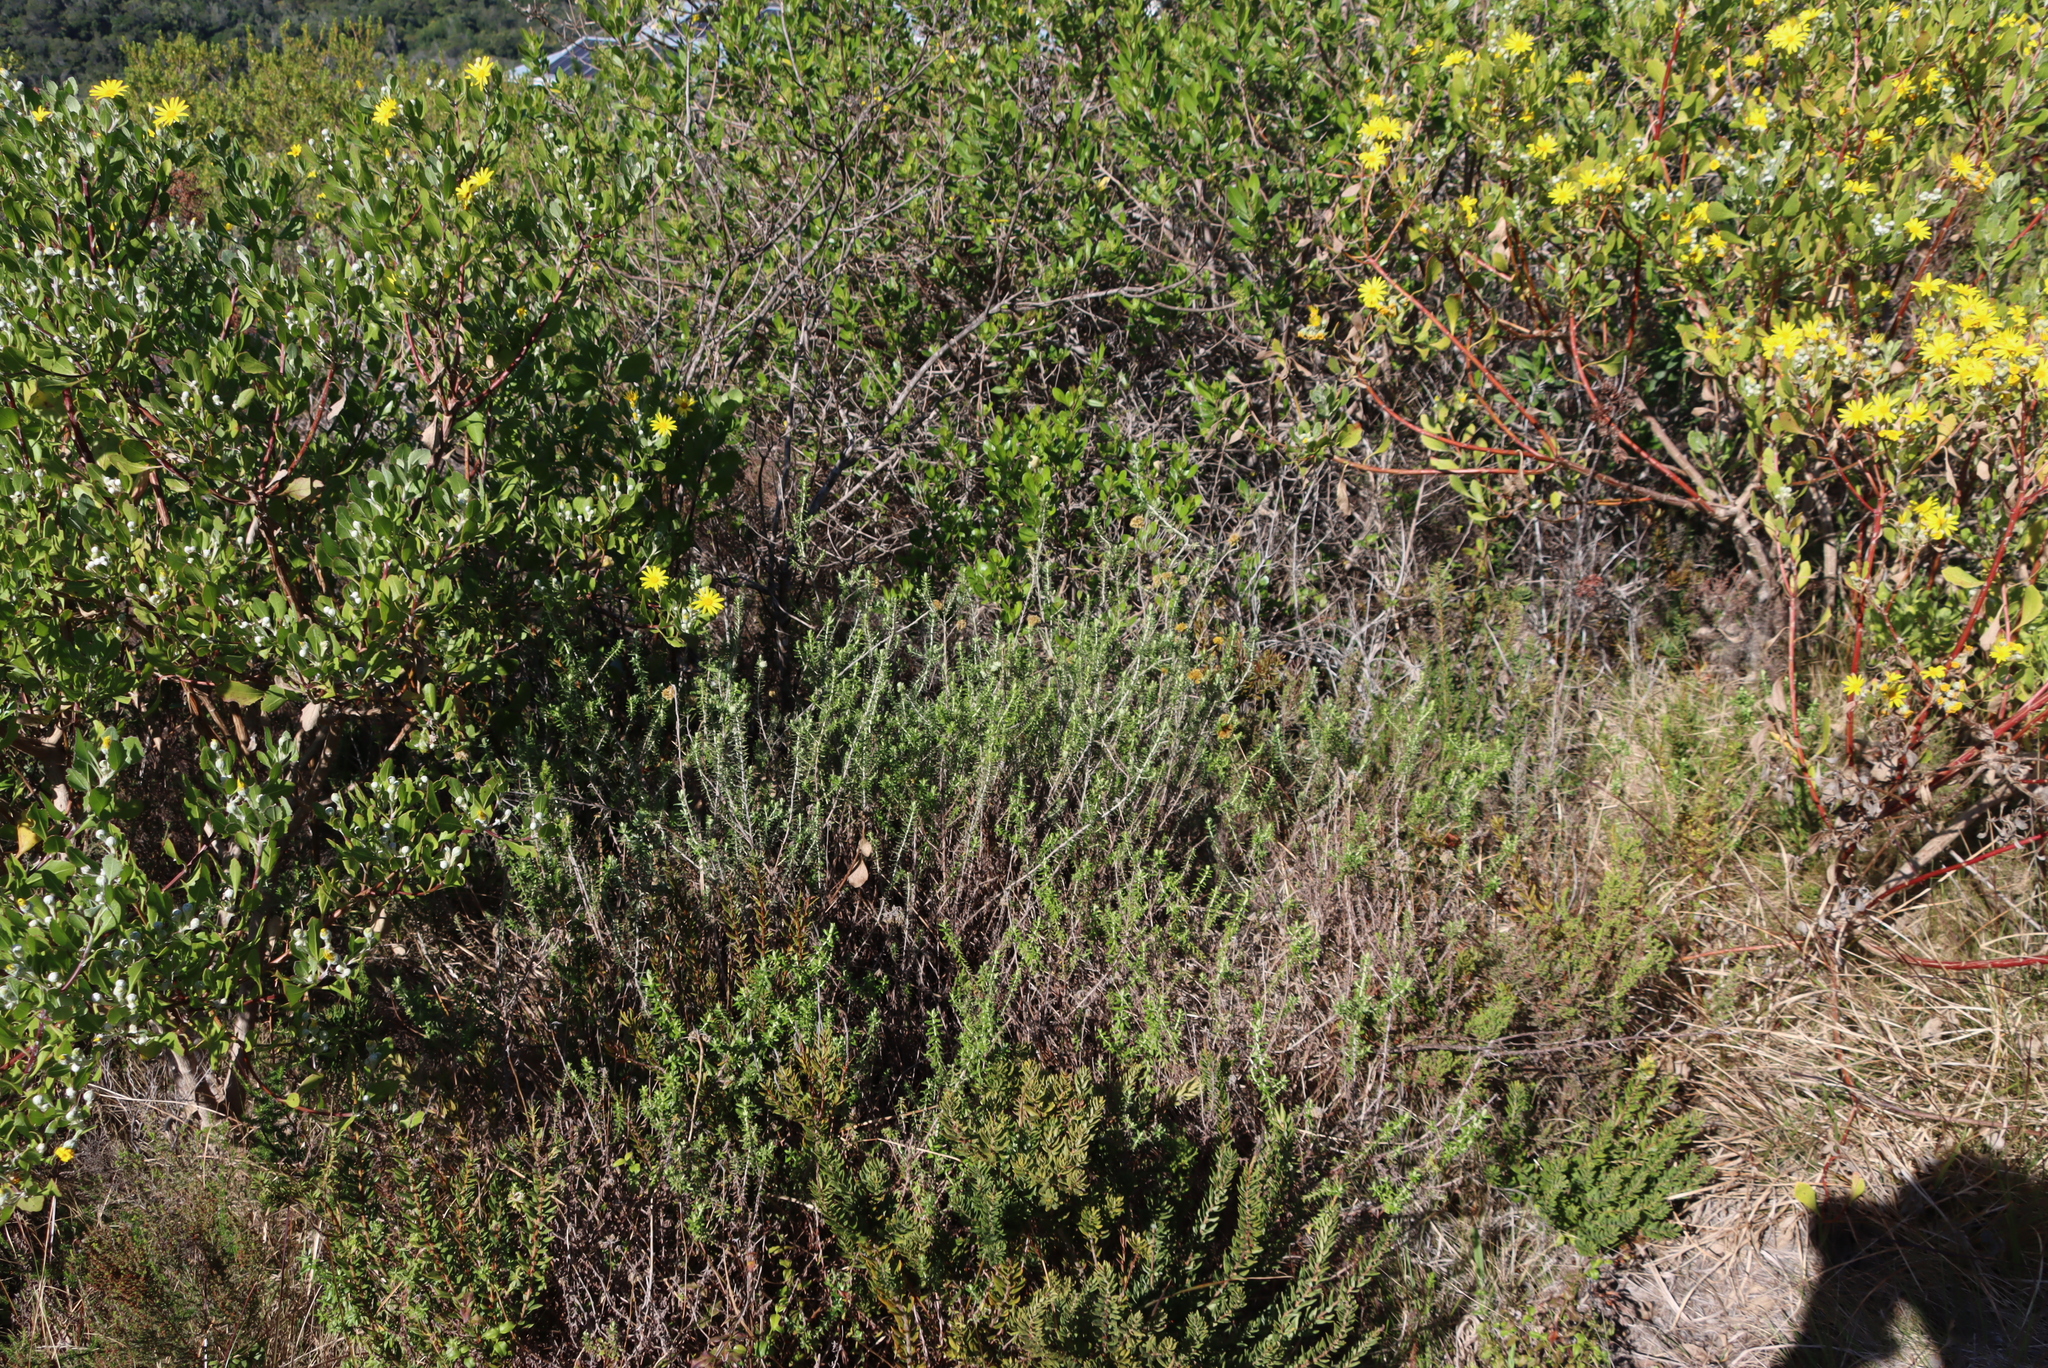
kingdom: Plantae
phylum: Tracheophyta
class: Magnoliopsida
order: Asterales
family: Asteraceae
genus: Helichrysum
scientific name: Helichrysum cymosum
